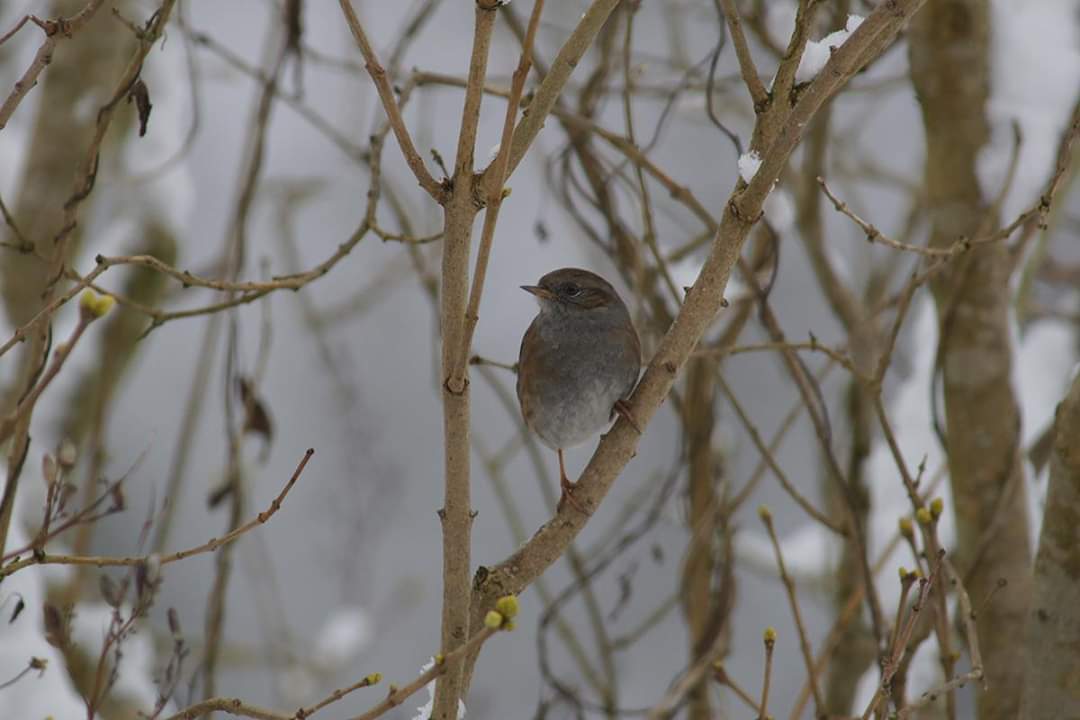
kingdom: Animalia
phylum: Chordata
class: Aves
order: Passeriformes
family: Prunellidae
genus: Prunella
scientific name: Prunella modularis
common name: Dunnock
